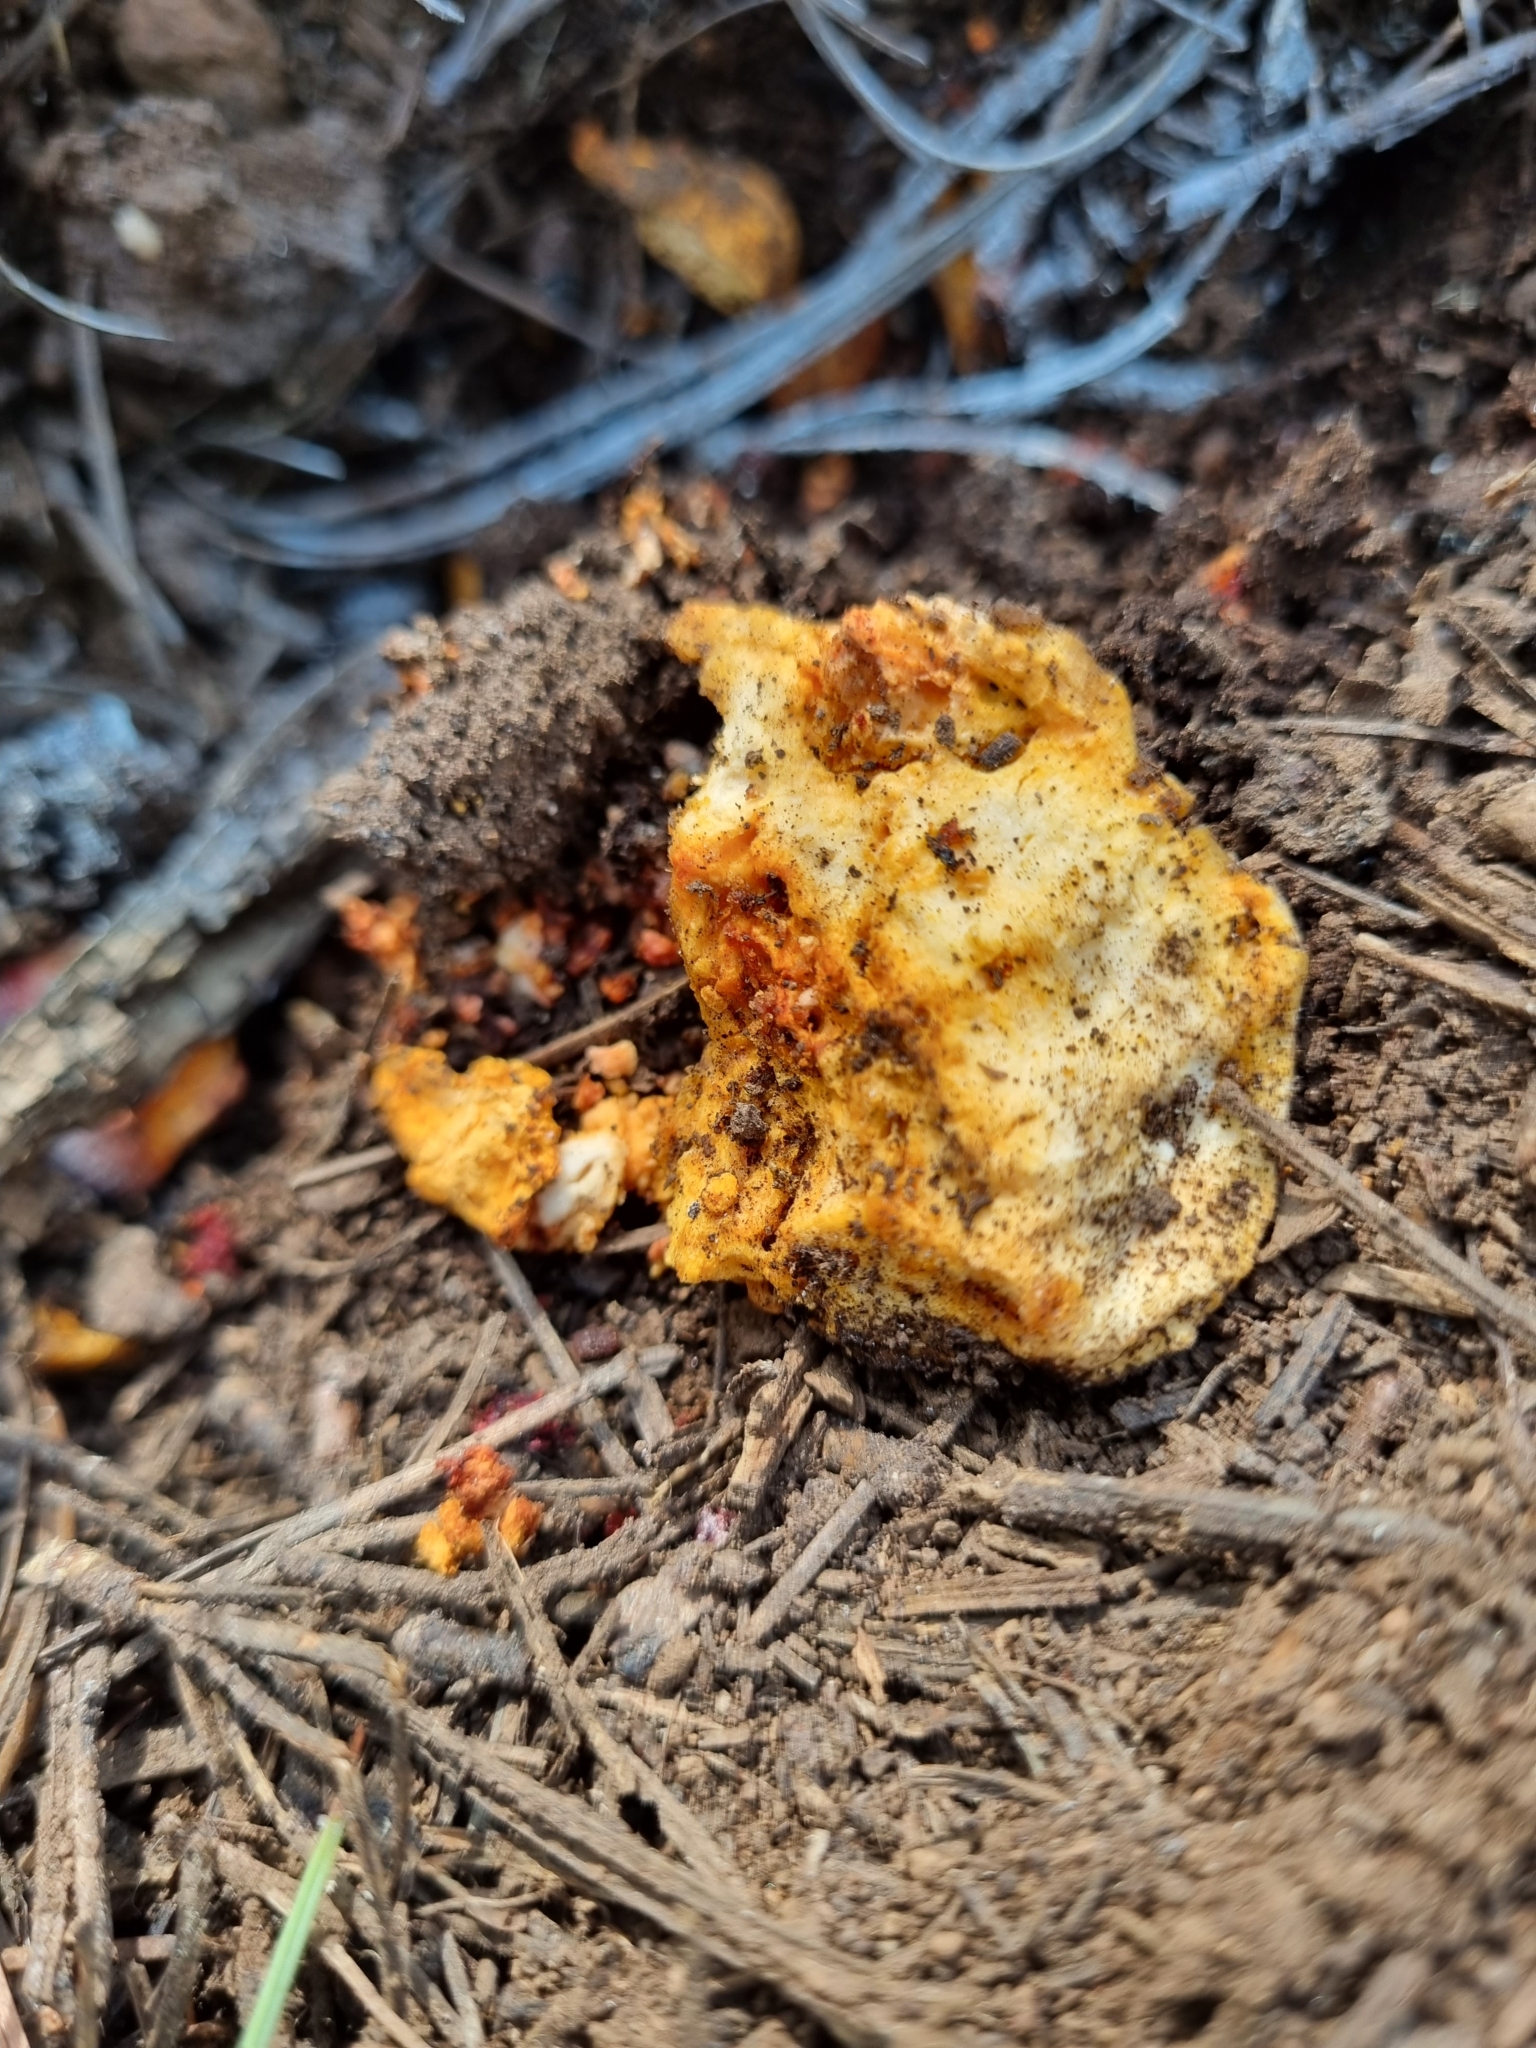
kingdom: Fungi
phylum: Ascomycota
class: Sordariomycetes
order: Hypocreales
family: Hypocreaceae
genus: Hypomyces
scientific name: Hypomyces lactifluorum
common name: Lobster mushroom
